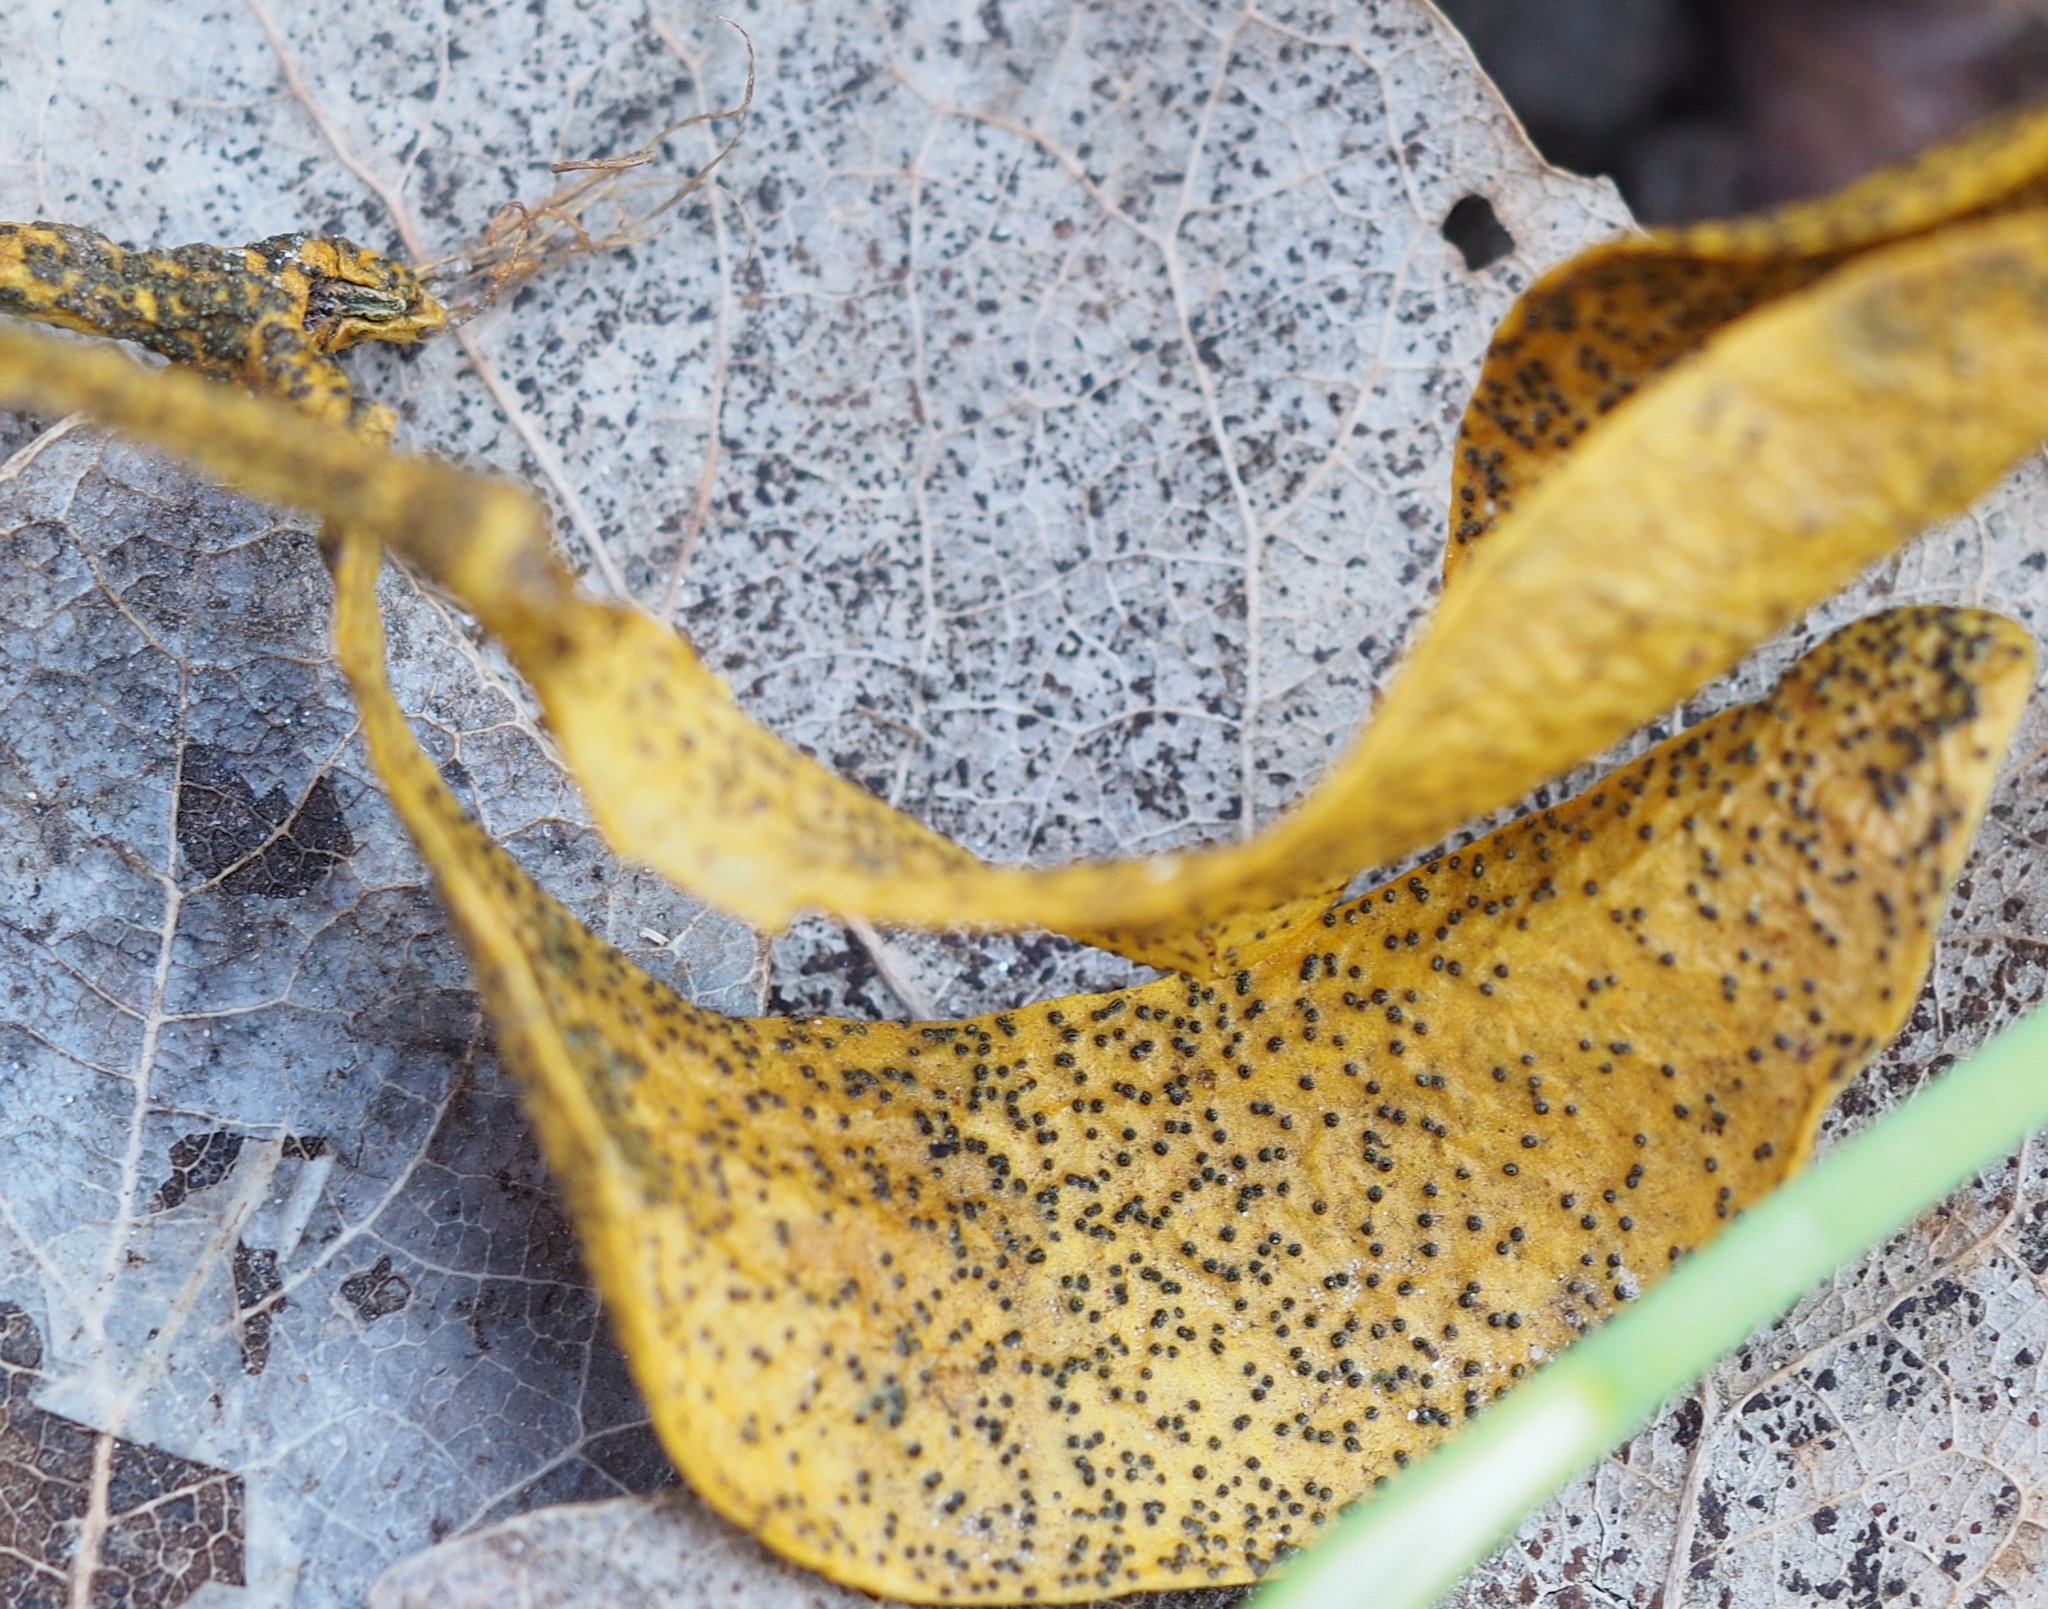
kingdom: Fungi
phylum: Ascomycota
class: Dothideomycetes
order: Botryosphaeriales
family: Botryosphaeriaceae
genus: Botryosphaeria
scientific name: Botryosphaeria visci
